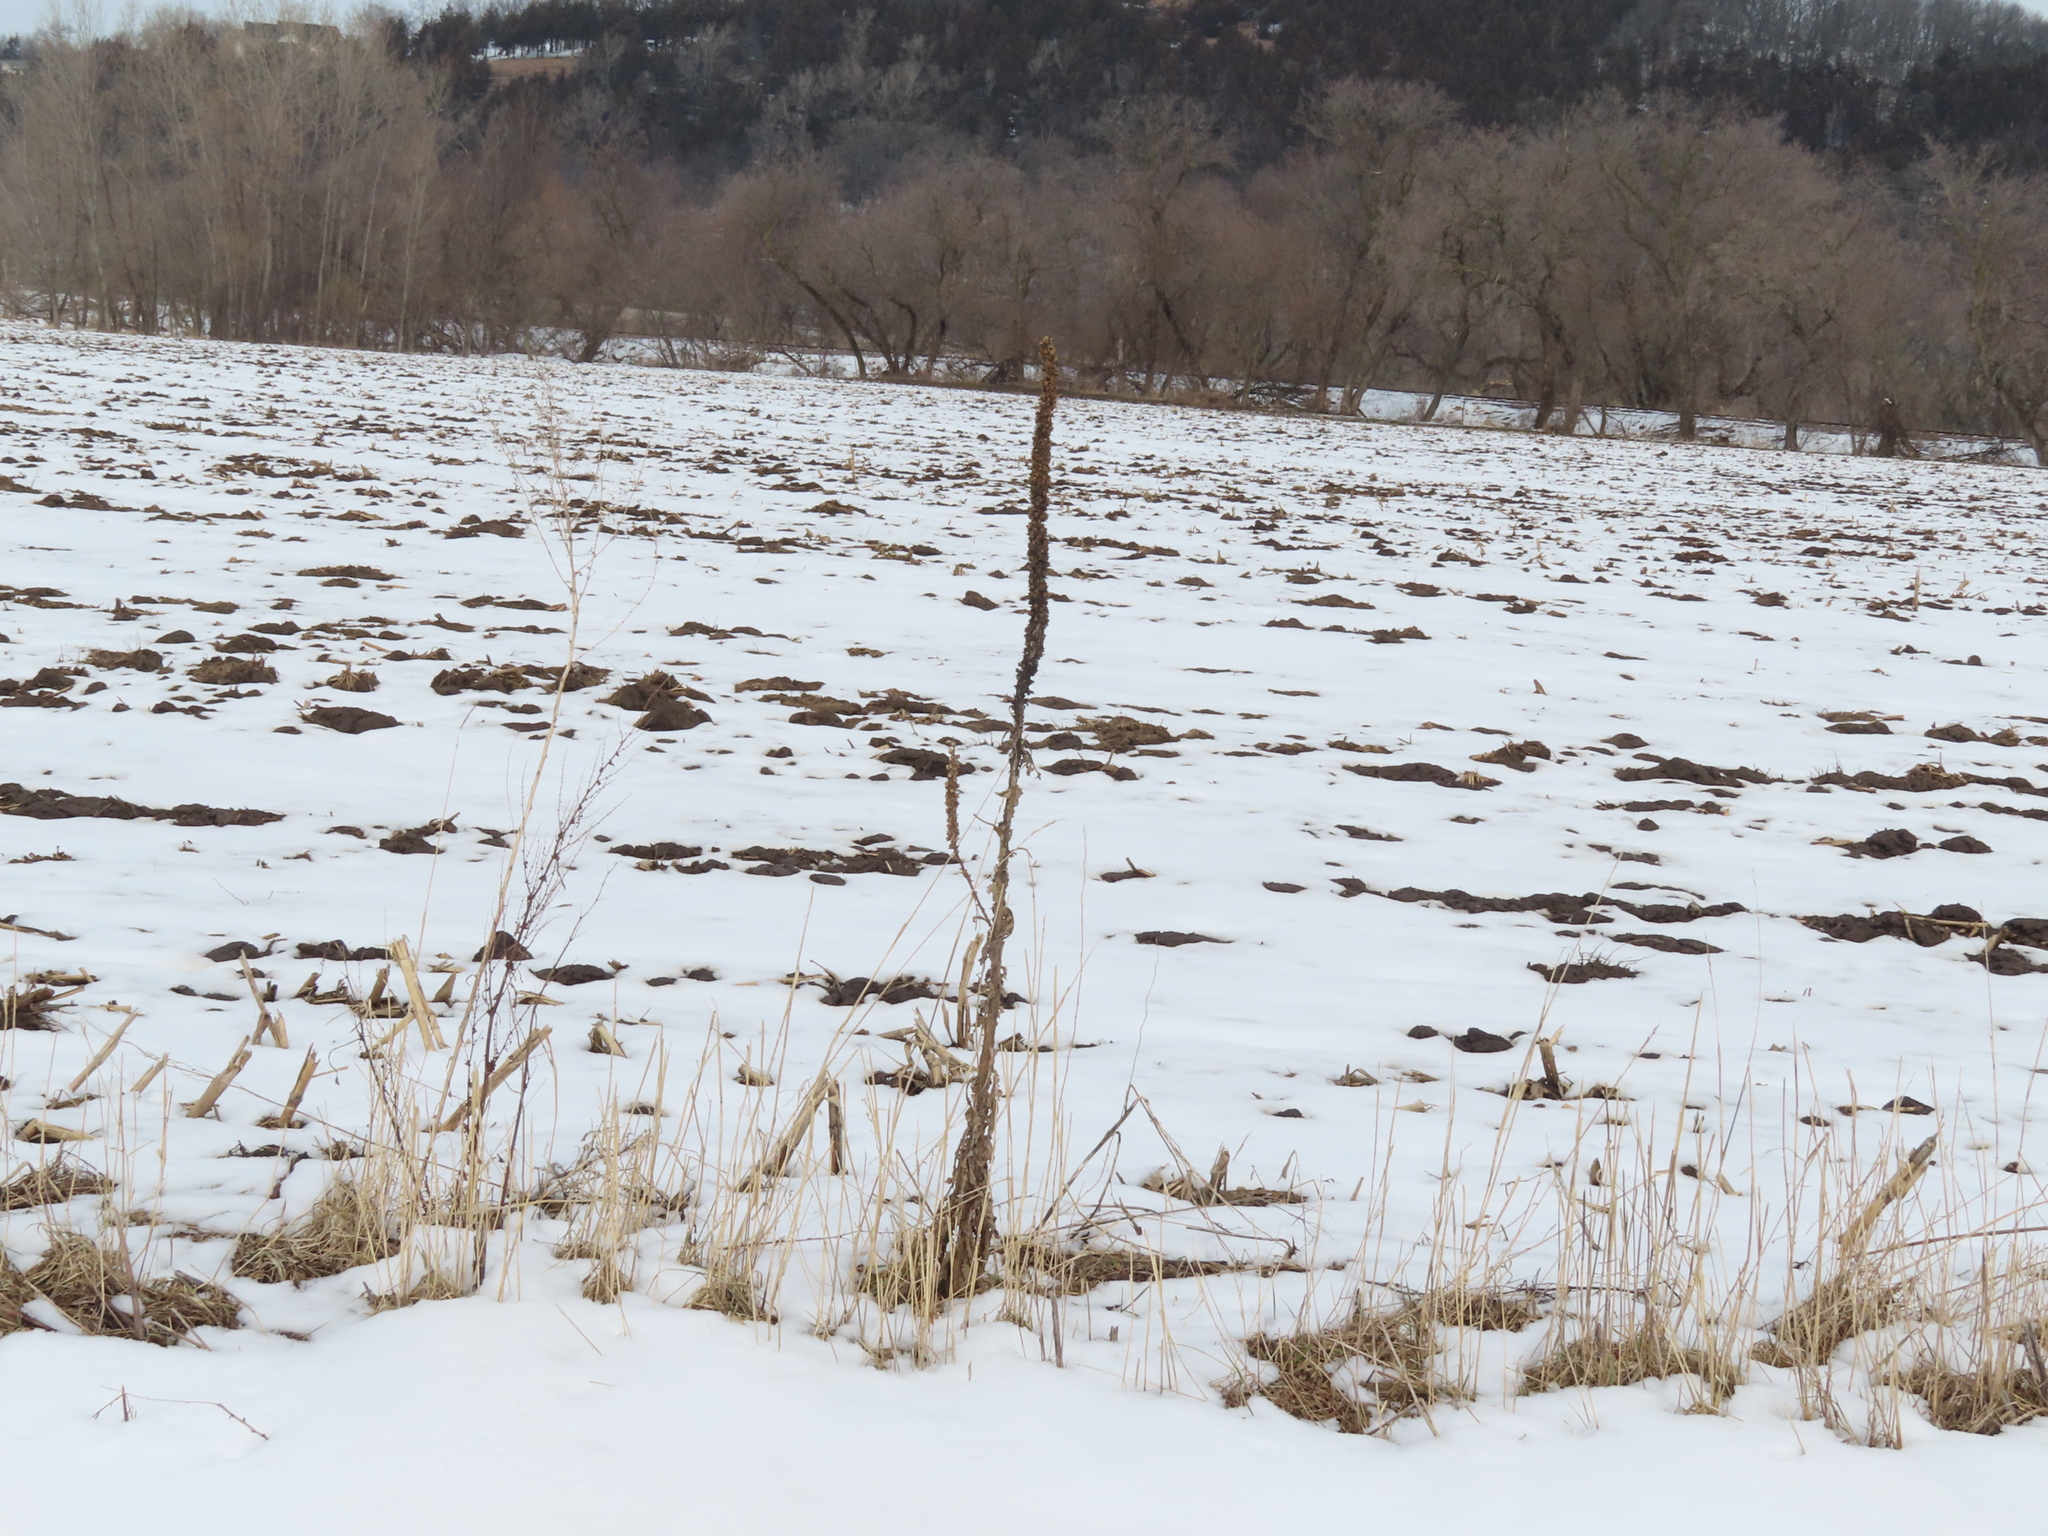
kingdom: Plantae
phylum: Tracheophyta
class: Magnoliopsida
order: Lamiales
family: Scrophulariaceae
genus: Verbascum
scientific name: Verbascum thapsus
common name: Common mullein
